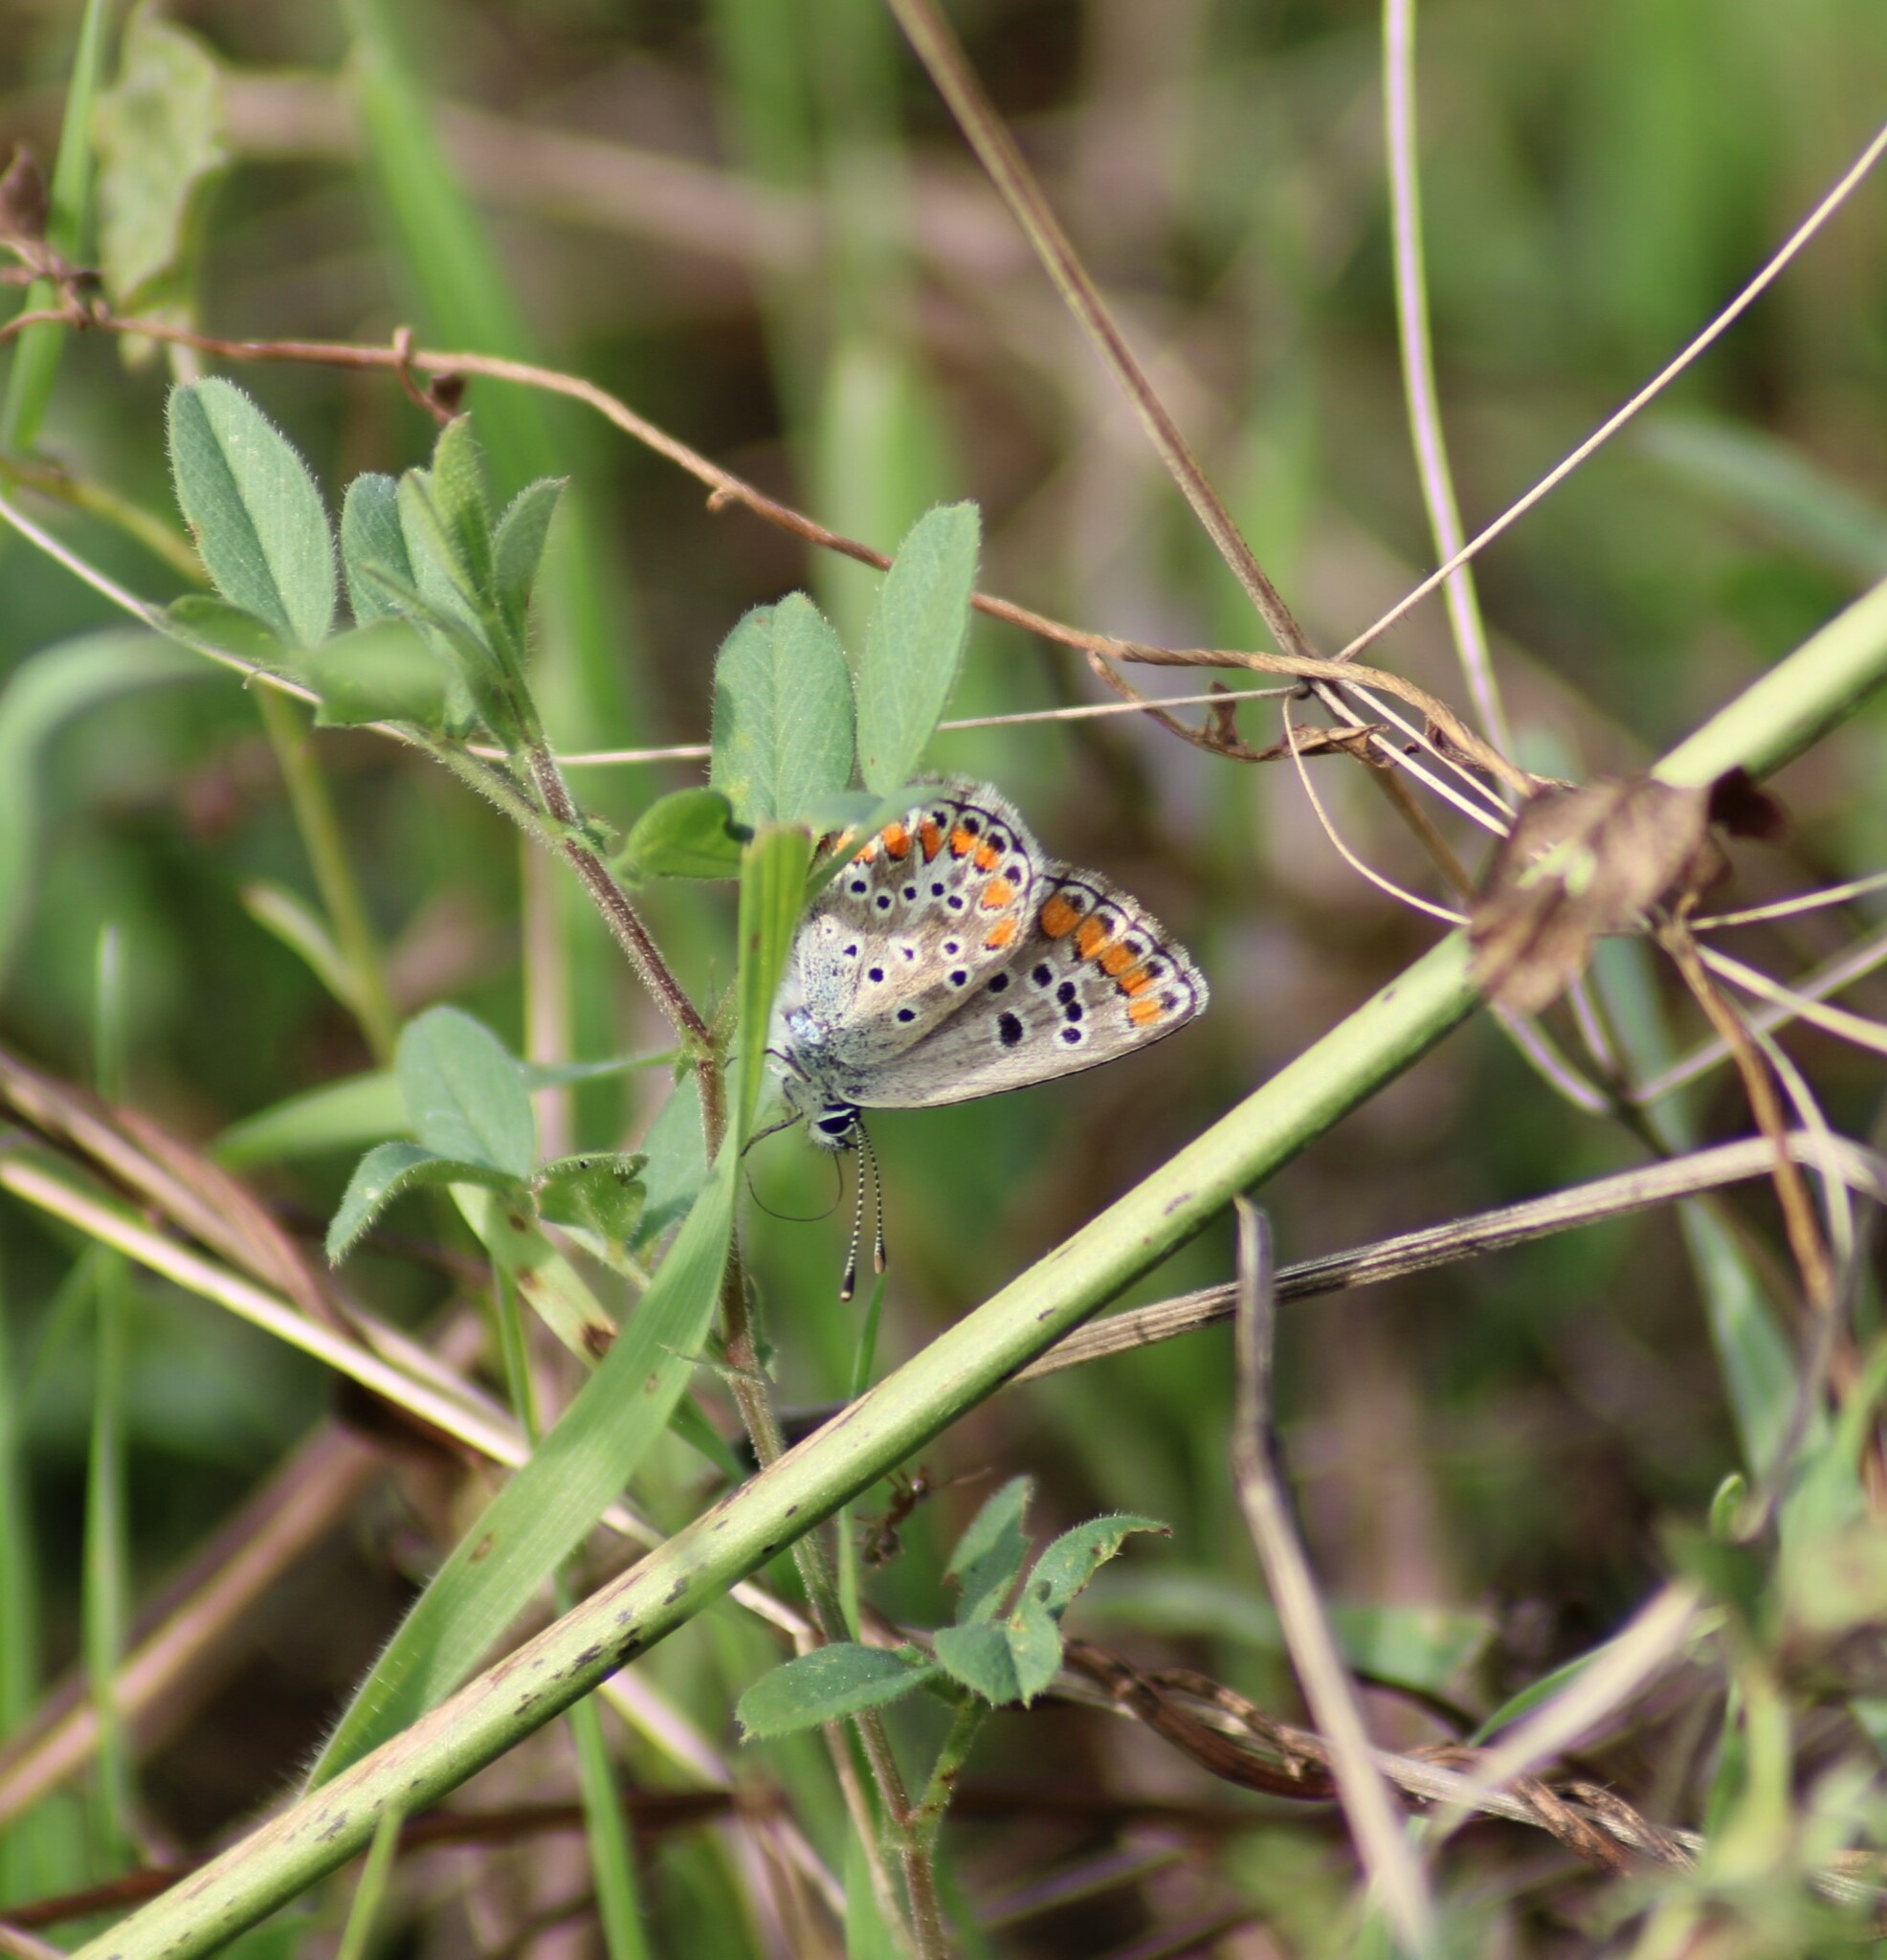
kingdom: Animalia
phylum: Arthropoda
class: Insecta
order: Lepidoptera
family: Lycaenidae
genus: Aricia
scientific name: Aricia agestis
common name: Brown argus
